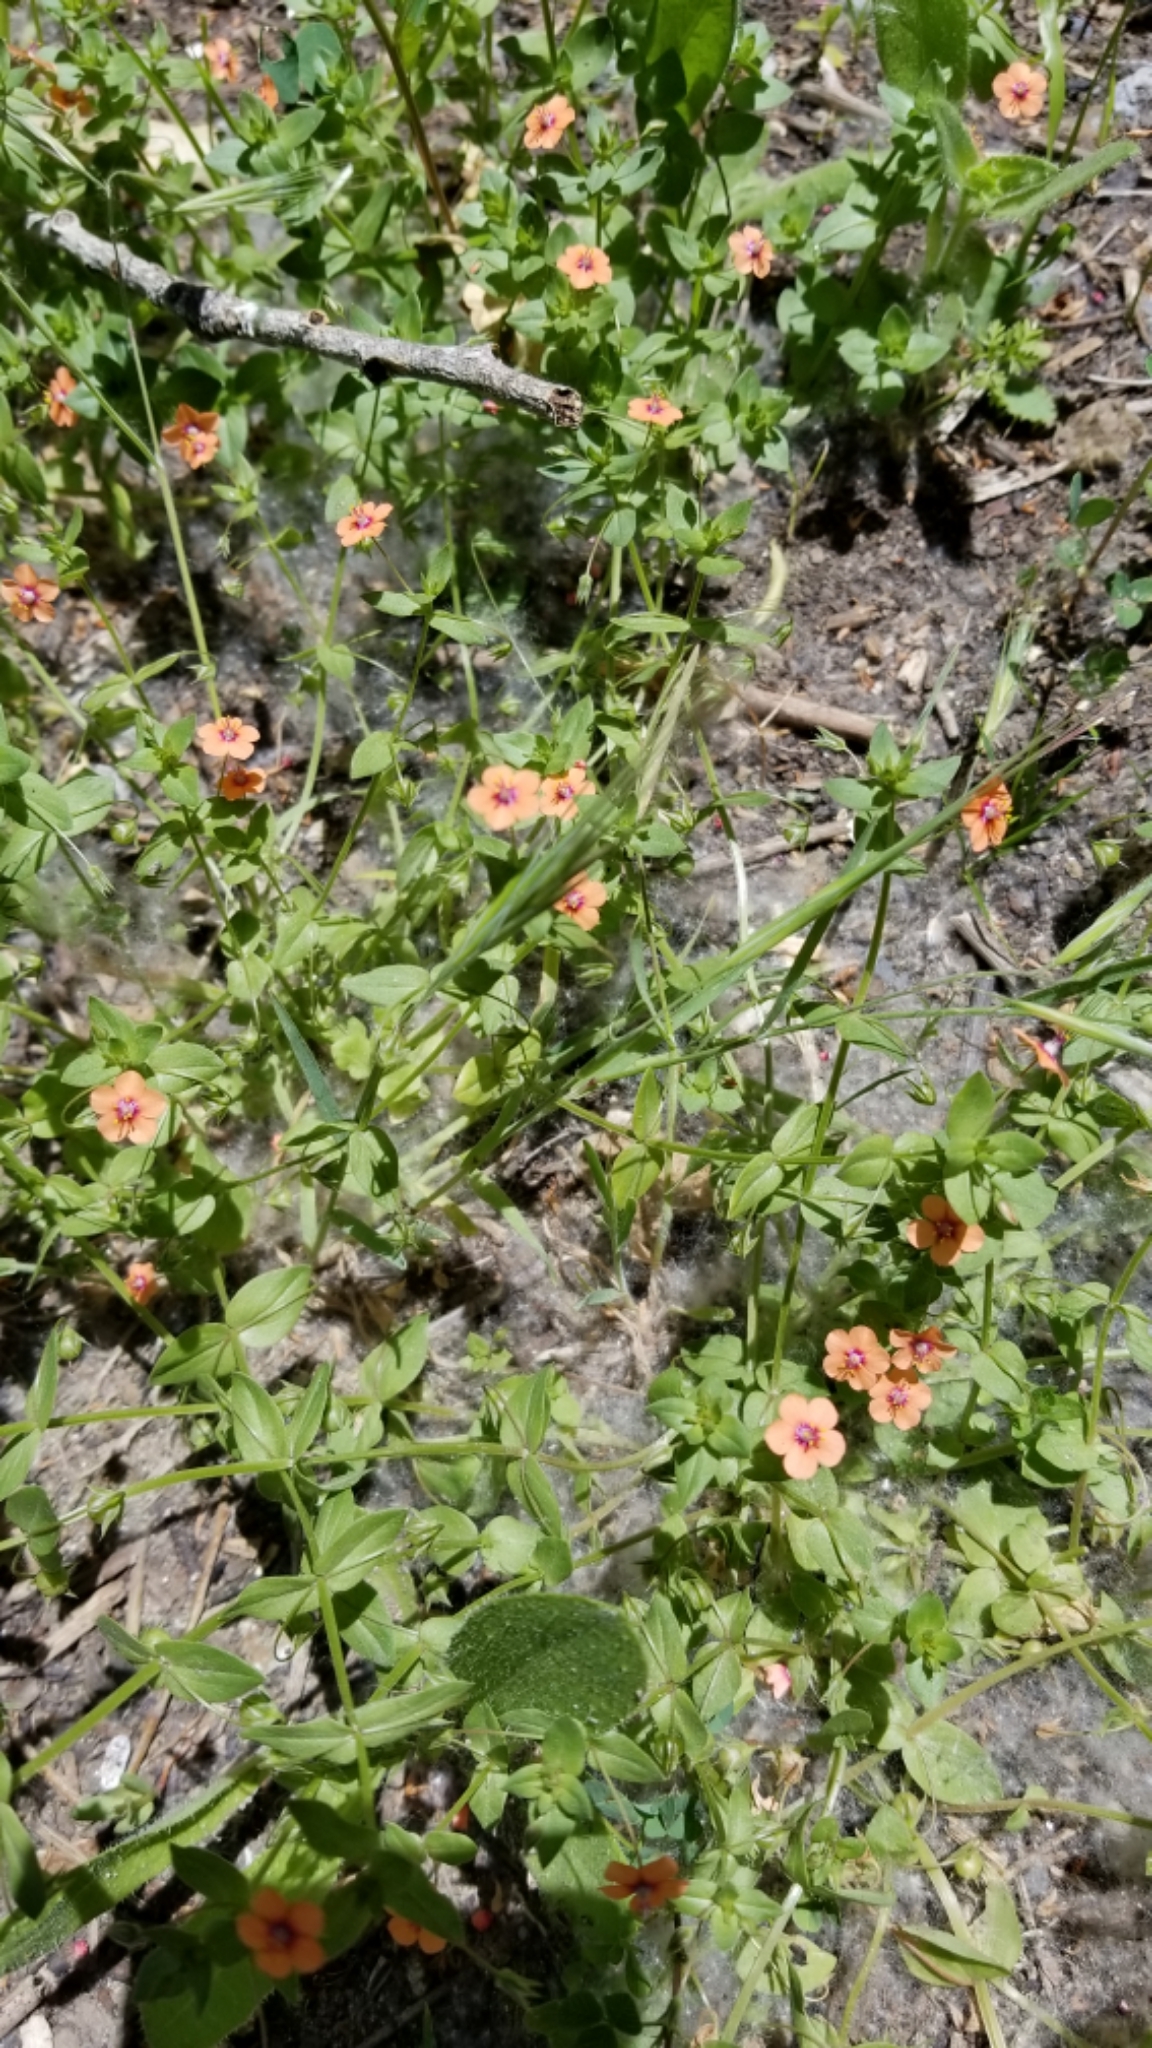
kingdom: Plantae
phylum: Tracheophyta
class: Magnoliopsida
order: Ericales
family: Primulaceae
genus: Lysimachia
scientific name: Lysimachia arvensis
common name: Scarlet pimpernel
